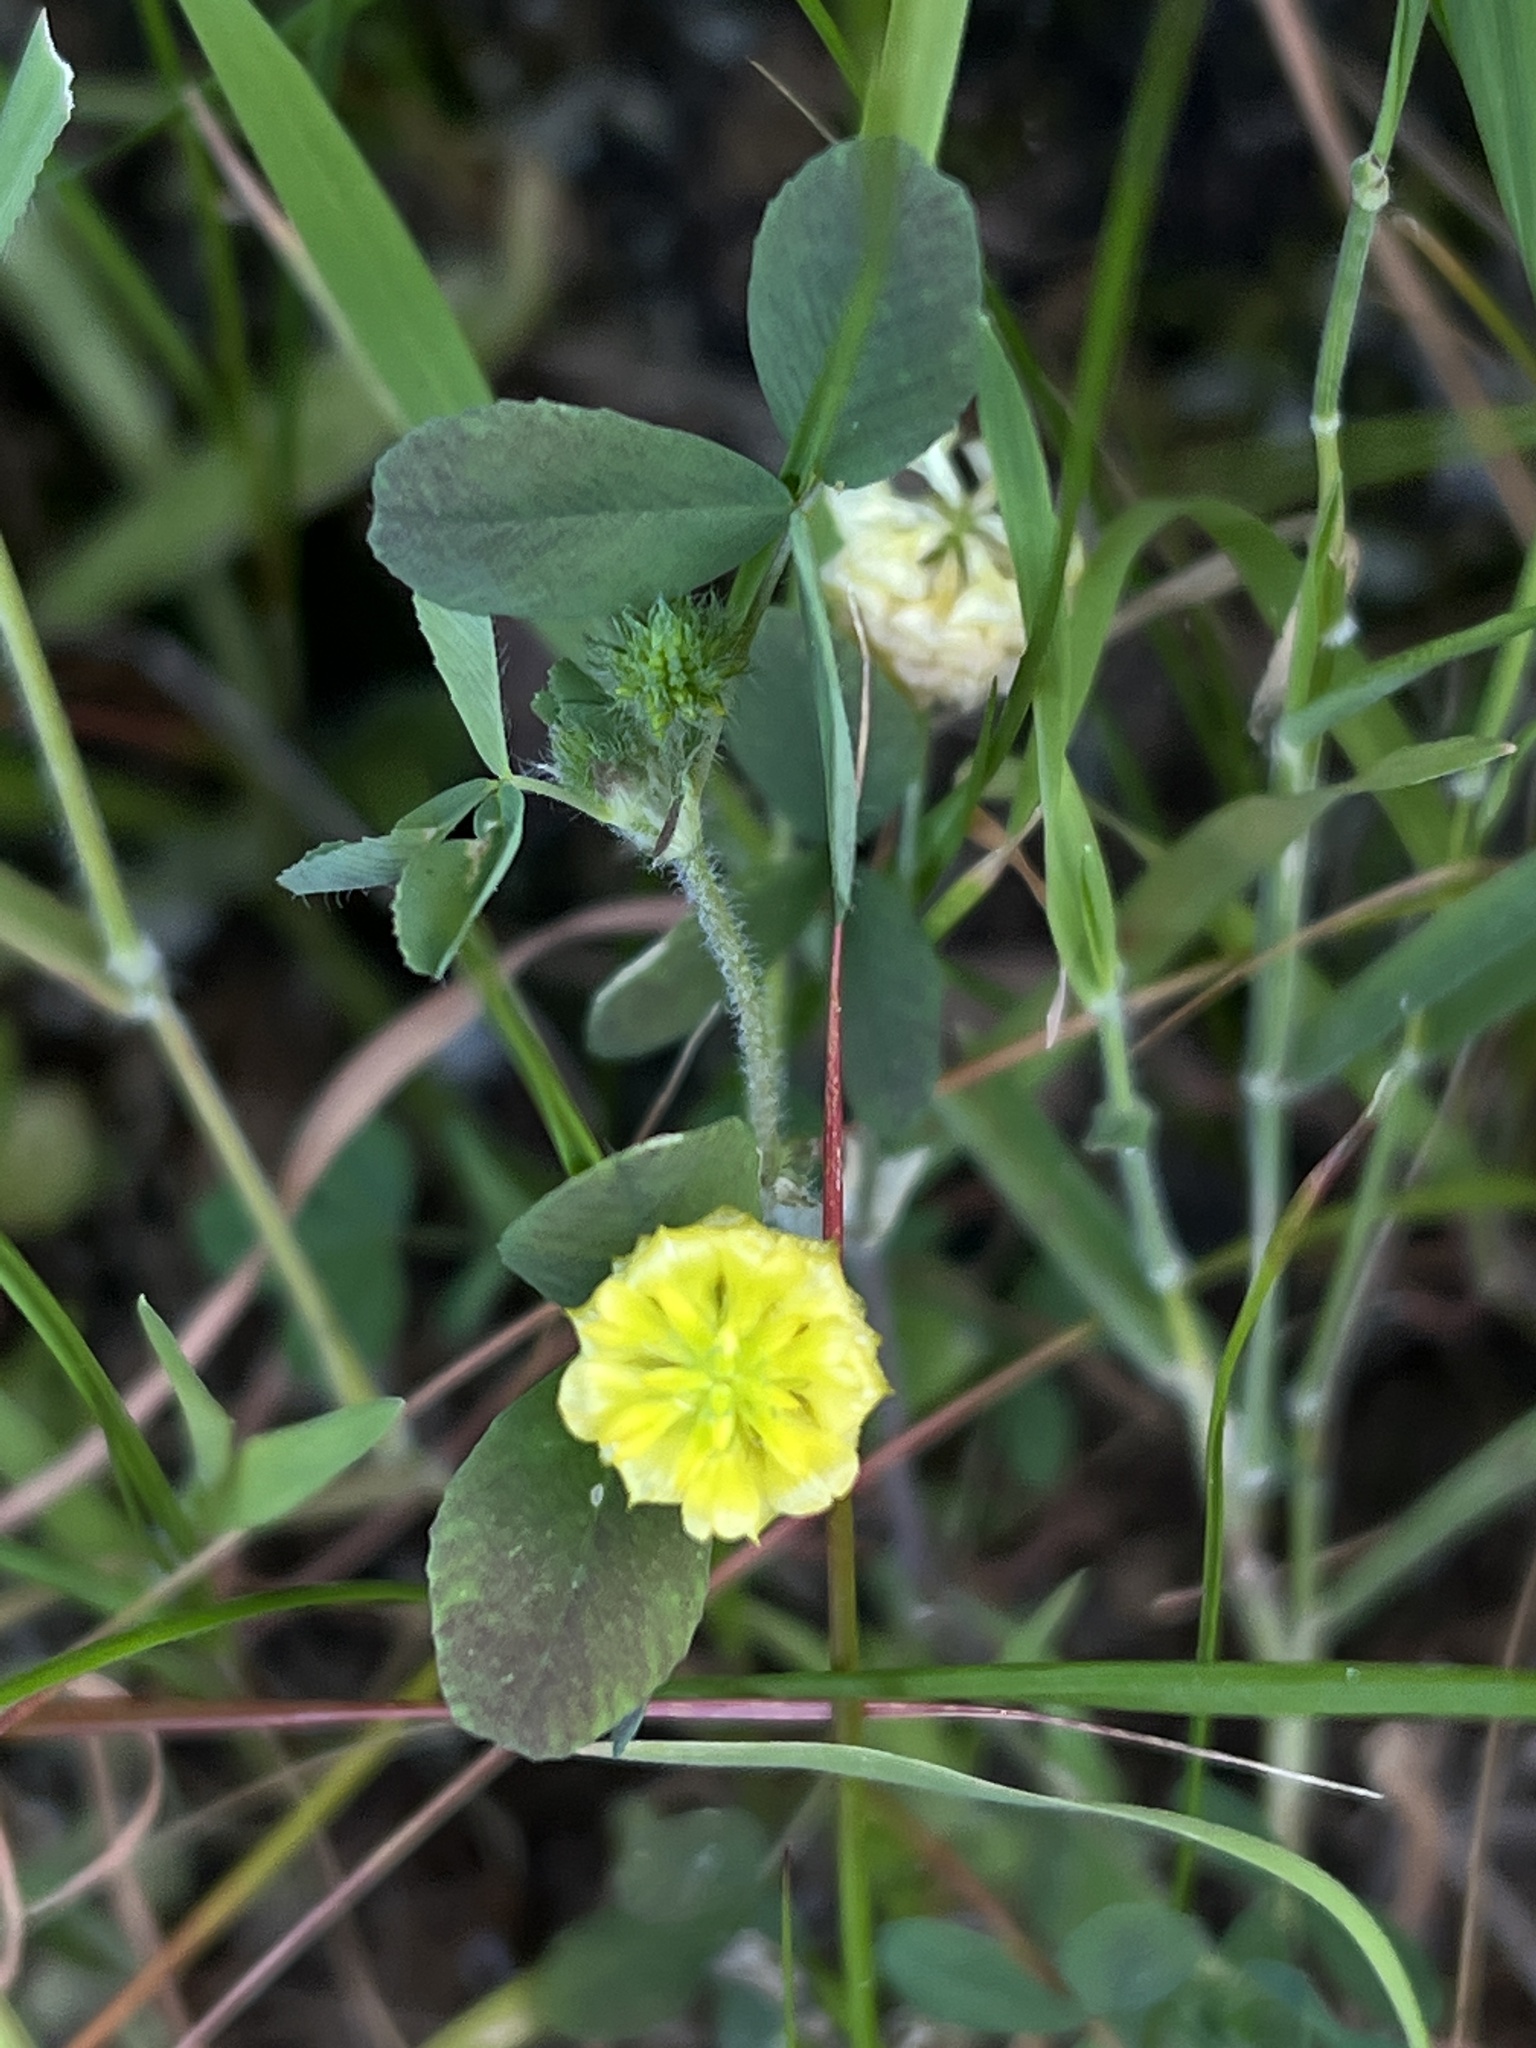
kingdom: Plantae
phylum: Tracheophyta
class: Magnoliopsida
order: Fabales
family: Fabaceae
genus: Trifolium
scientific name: Trifolium campestre
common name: Field clover
